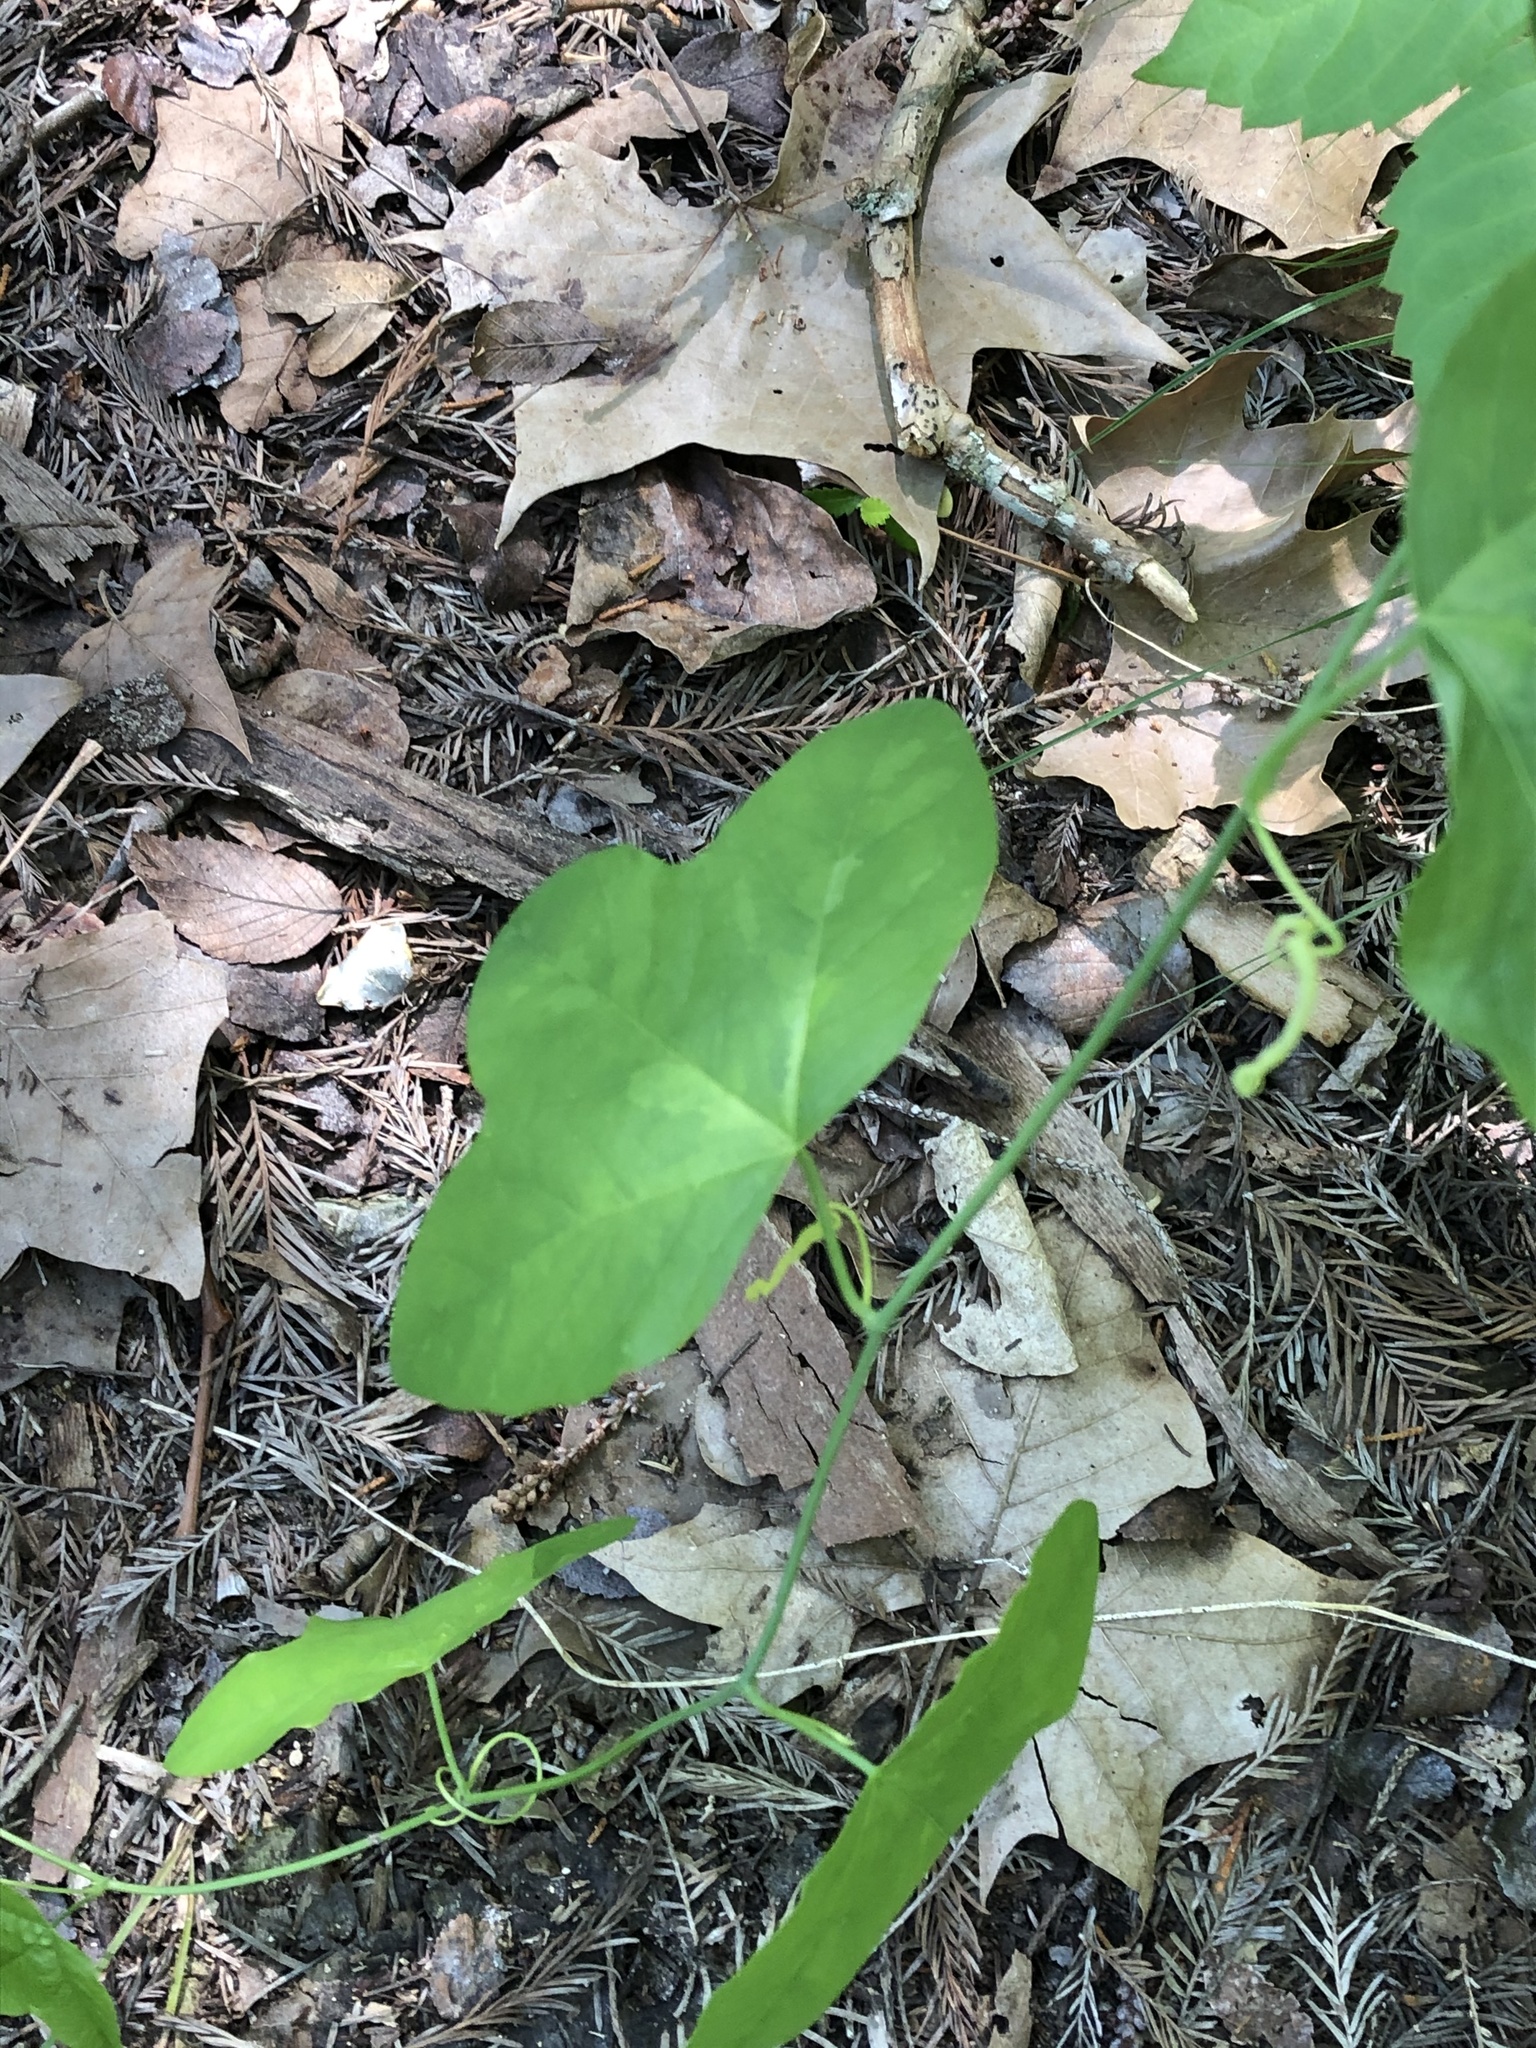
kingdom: Plantae
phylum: Tracheophyta
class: Magnoliopsida
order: Malpighiales
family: Passifloraceae
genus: Passiflora
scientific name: Passiflora lutea
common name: Yellow passionflower
